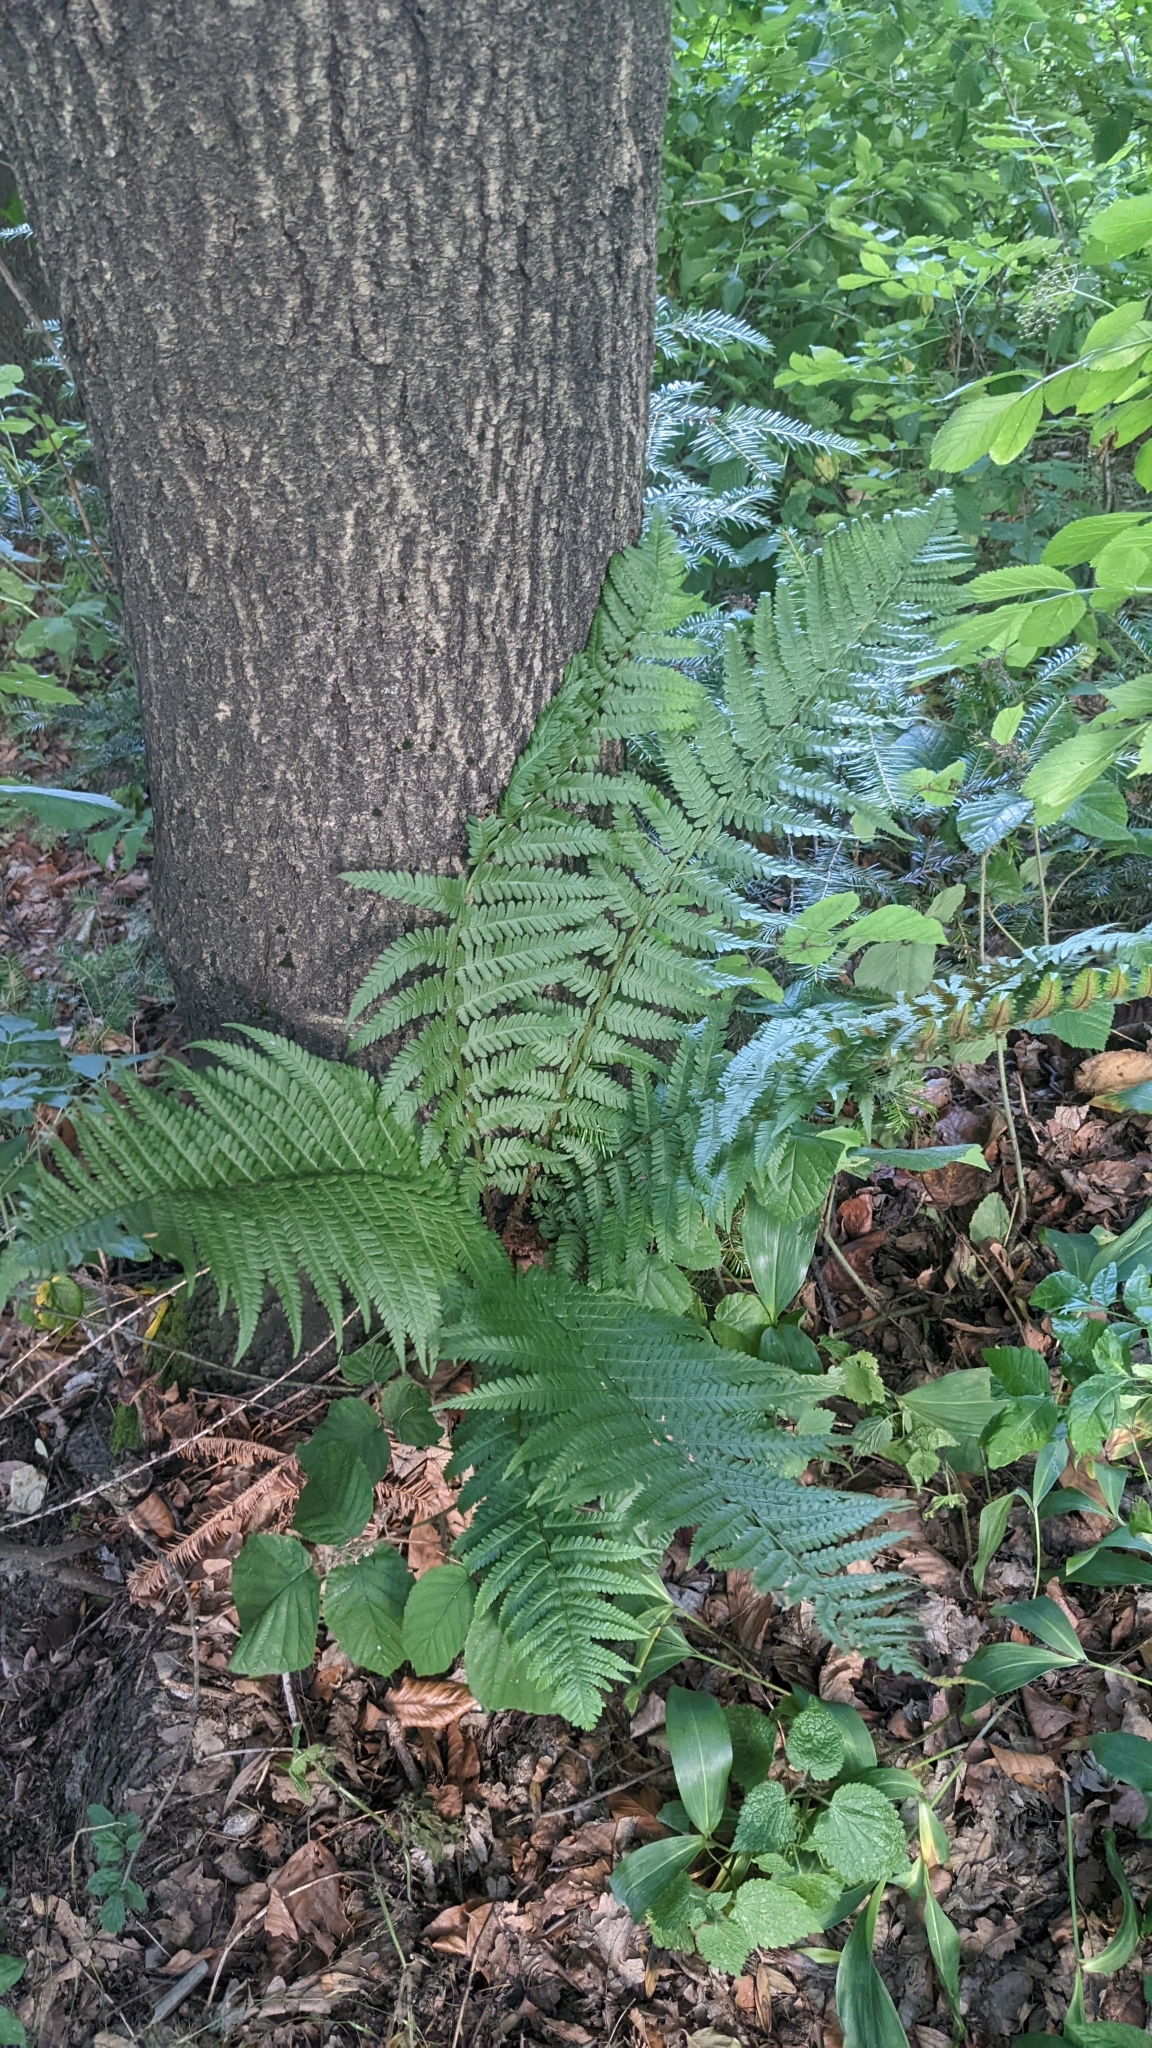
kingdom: Plantae
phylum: Tracheophyta
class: Polypodiopsida
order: Polypodiales
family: Dryopteridaceae
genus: Dryopteris
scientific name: Dryopteris filix-mas
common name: Male fern
